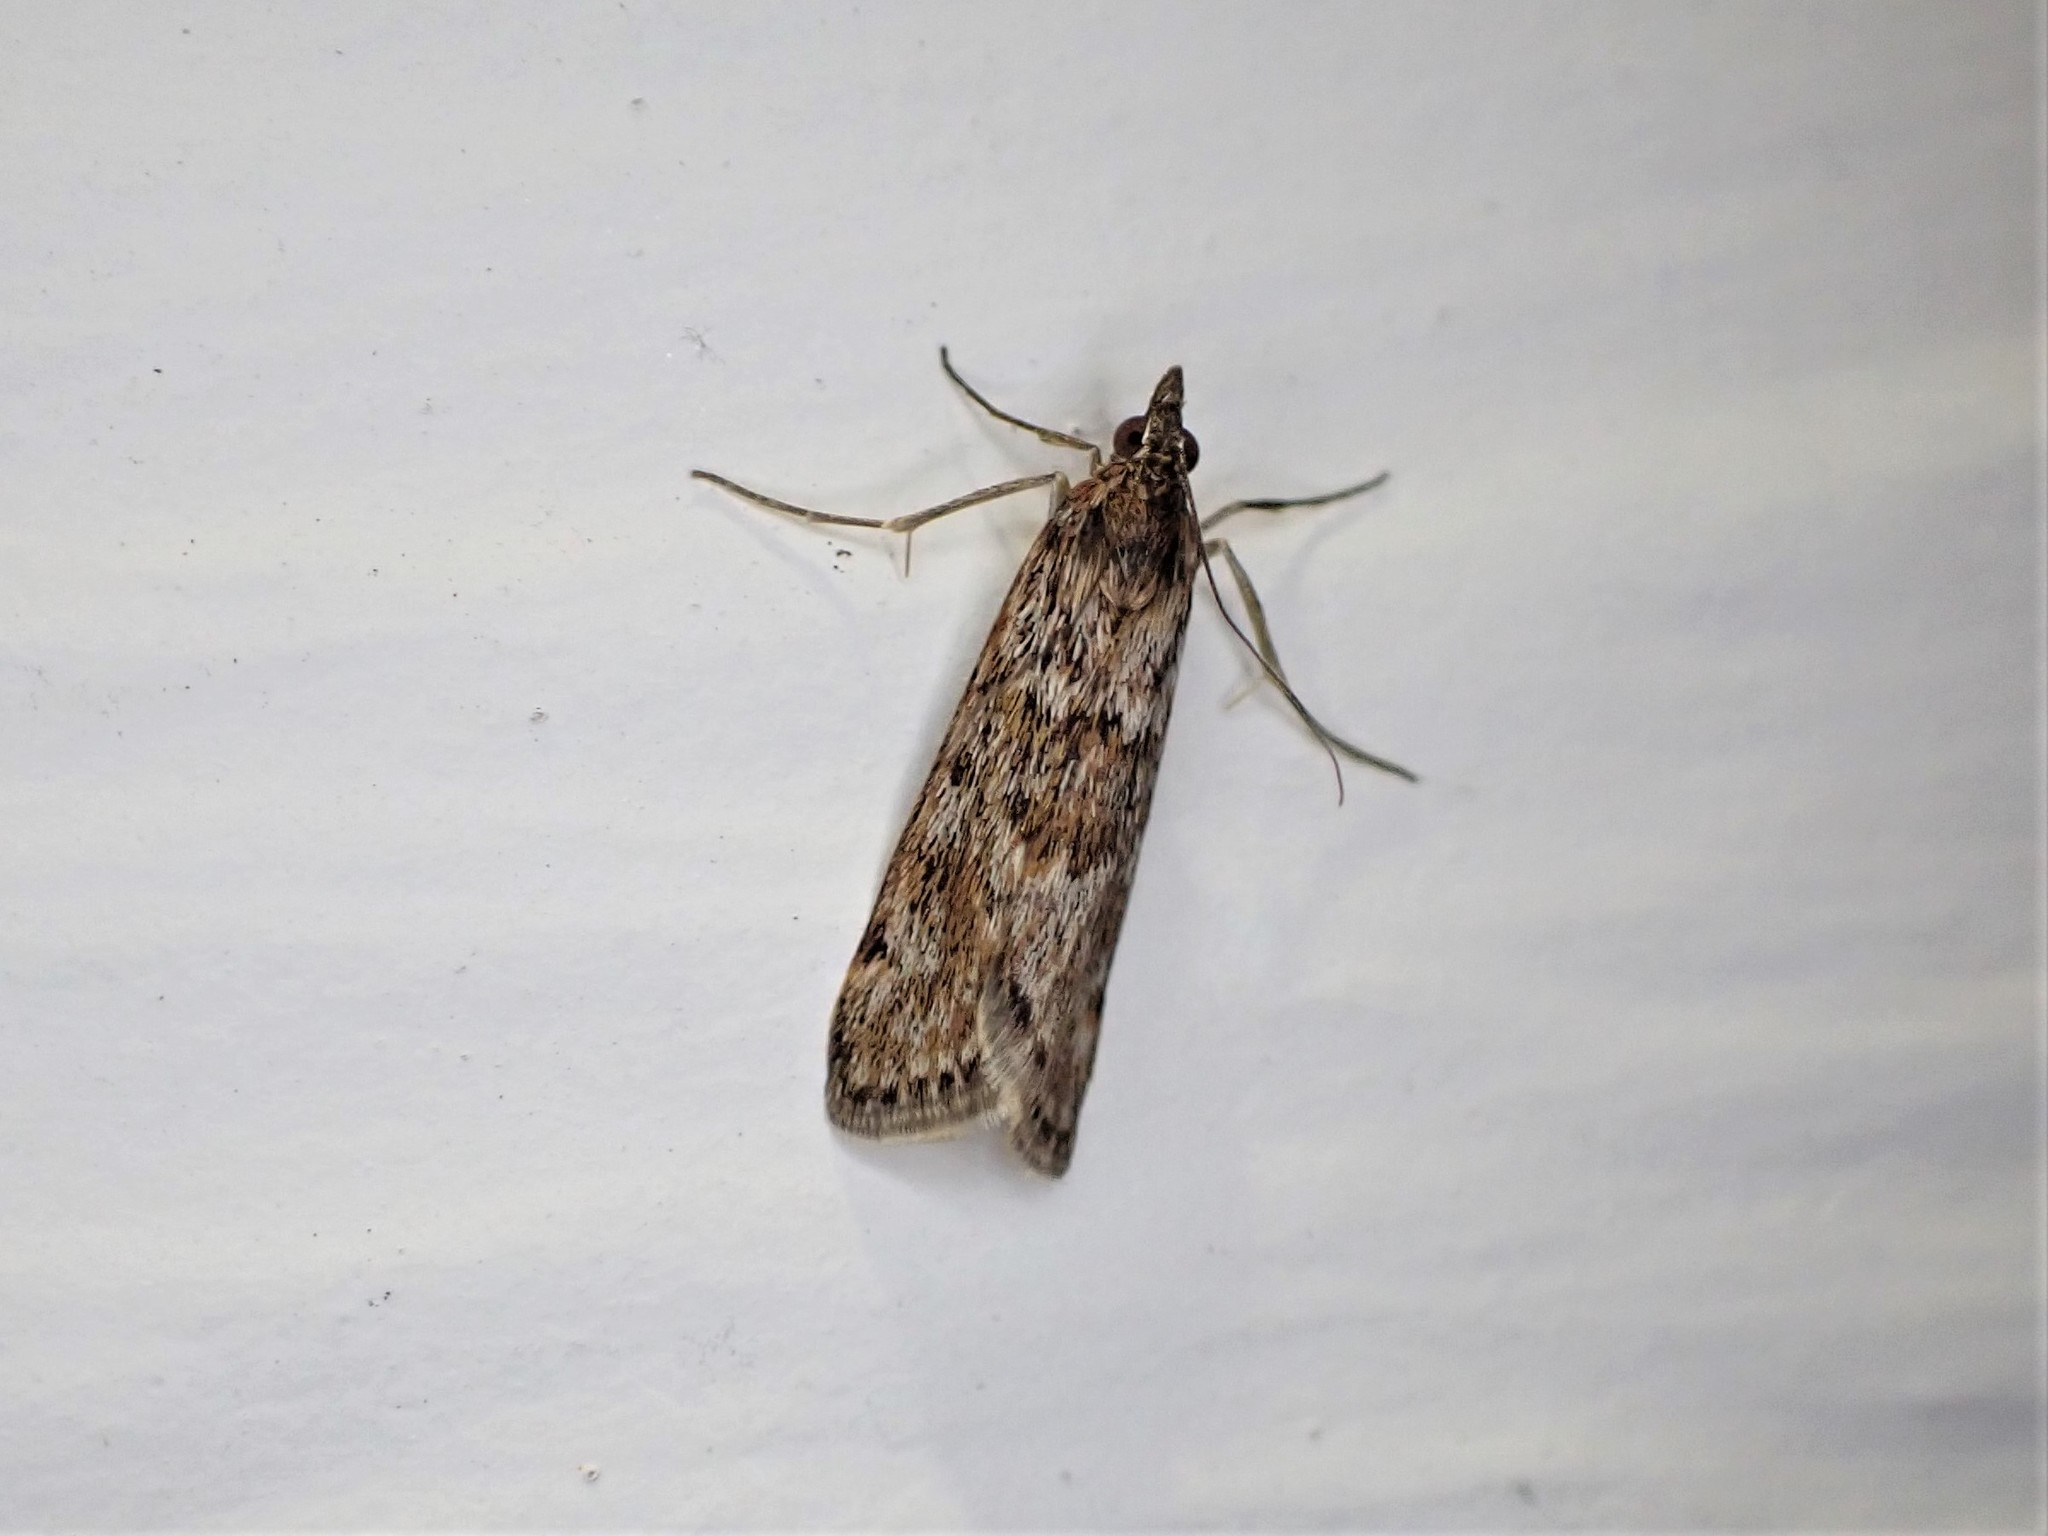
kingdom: Animalia
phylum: Arthropoda
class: Insecta
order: Lepidoptera
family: Crambidae
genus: Achyra
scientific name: Achyra affinitalis
